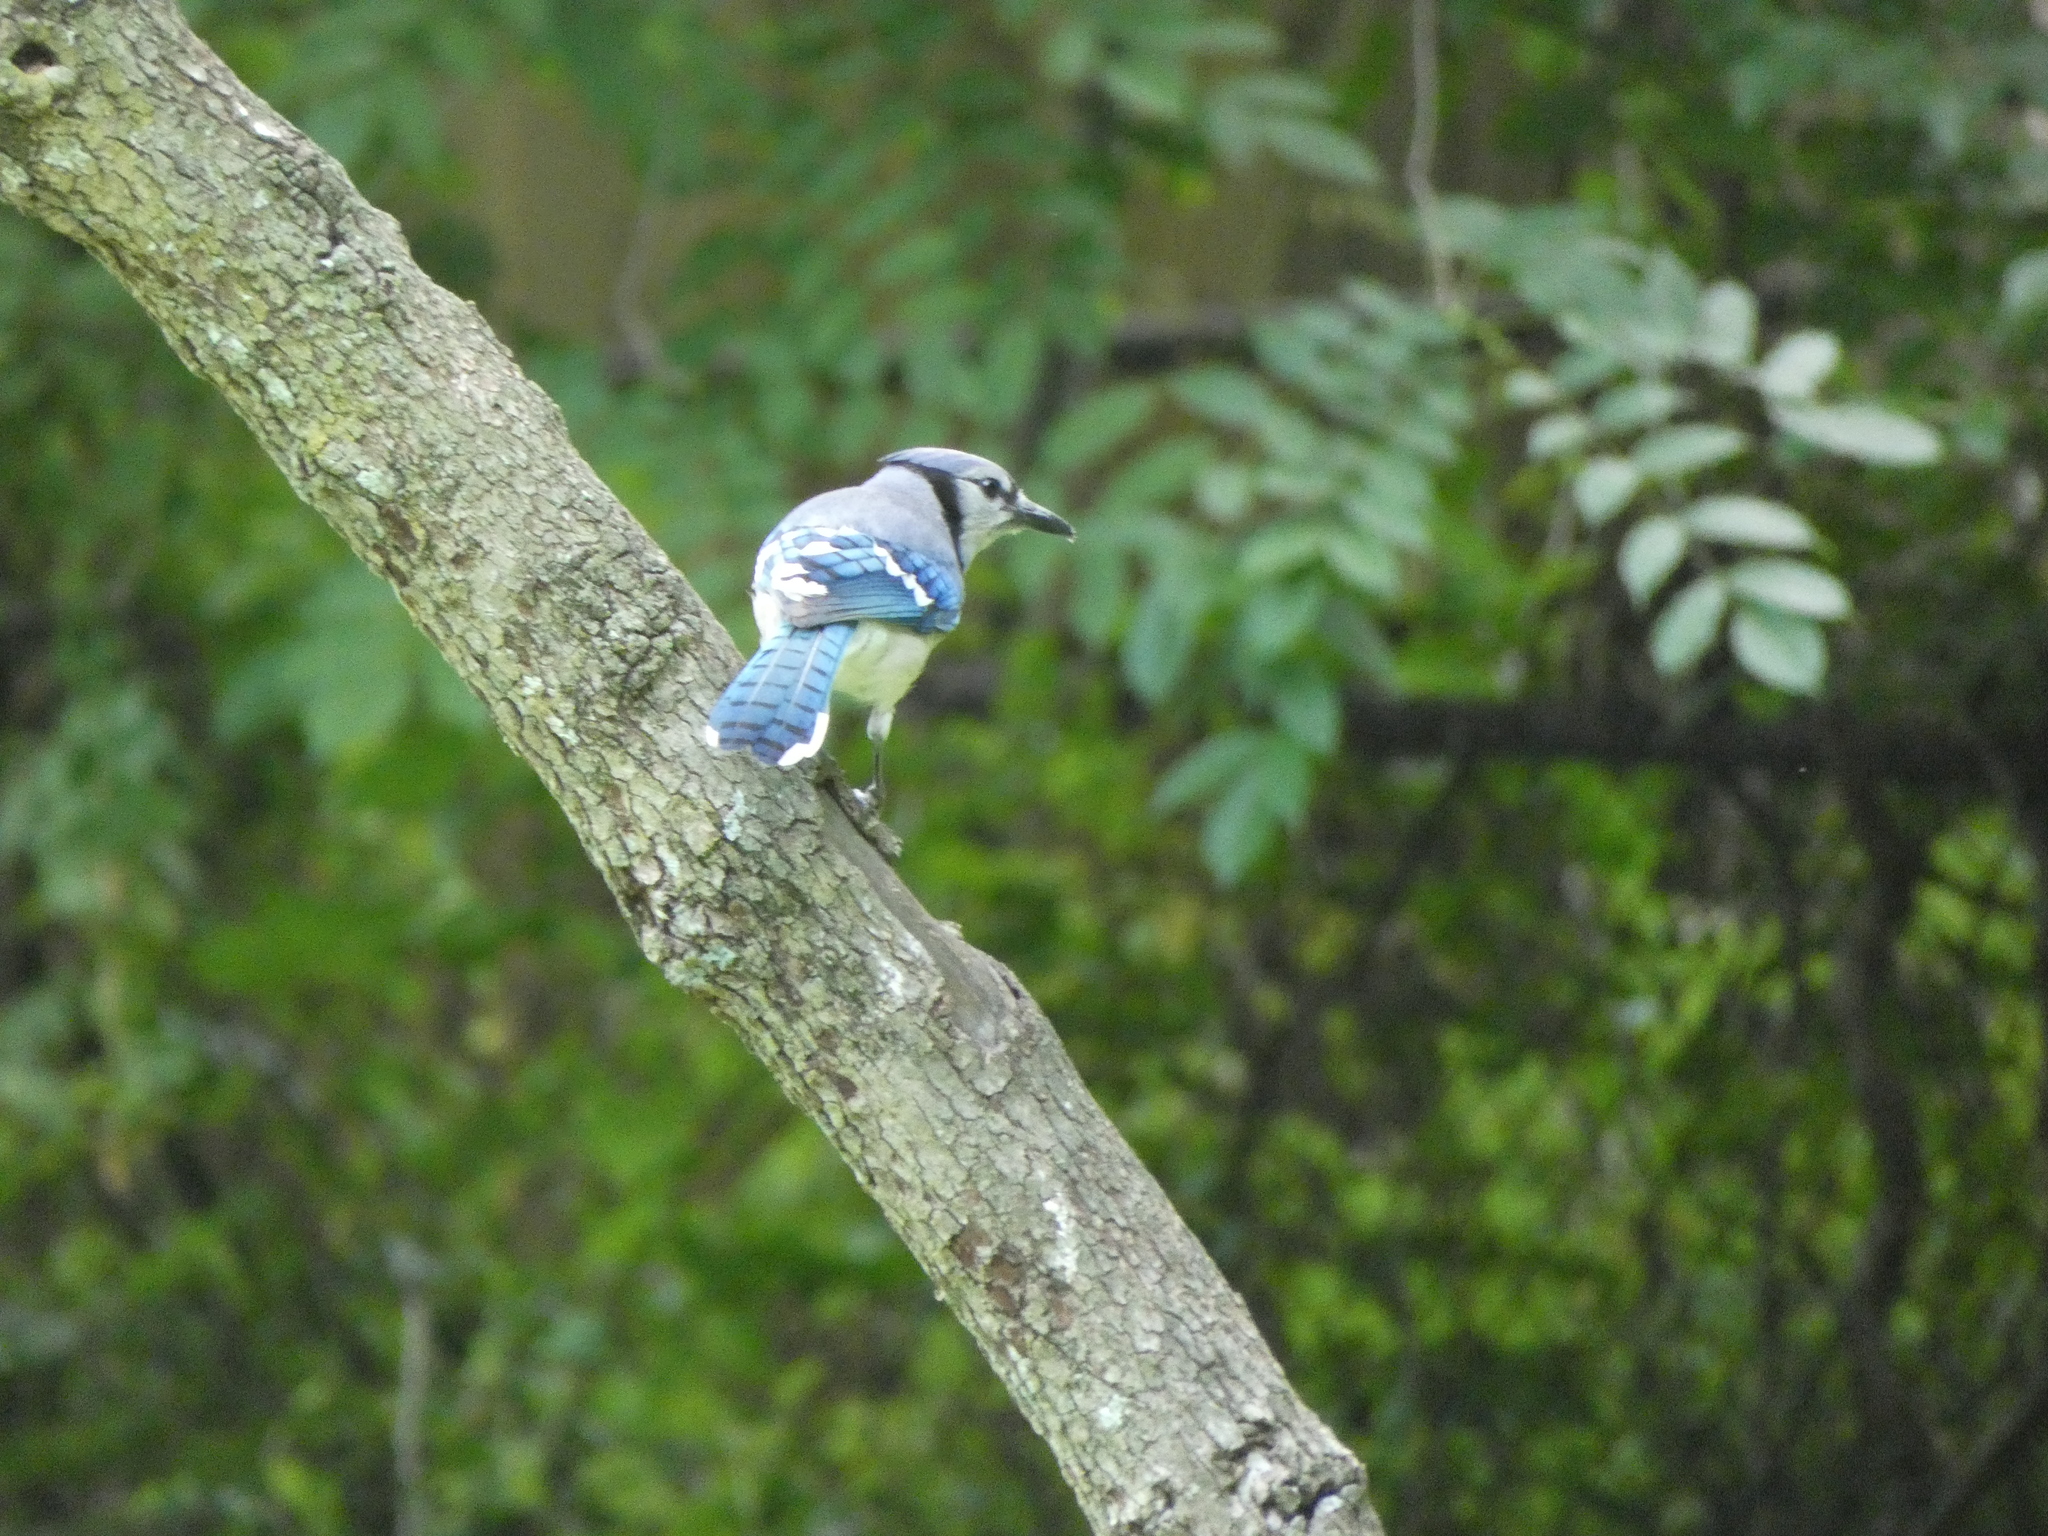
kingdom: Animalia
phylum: Chordata
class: Aves
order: Passeriformes
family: Corvidae
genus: Cyanocitta
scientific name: Cyanocitta cristata
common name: Blue jay
